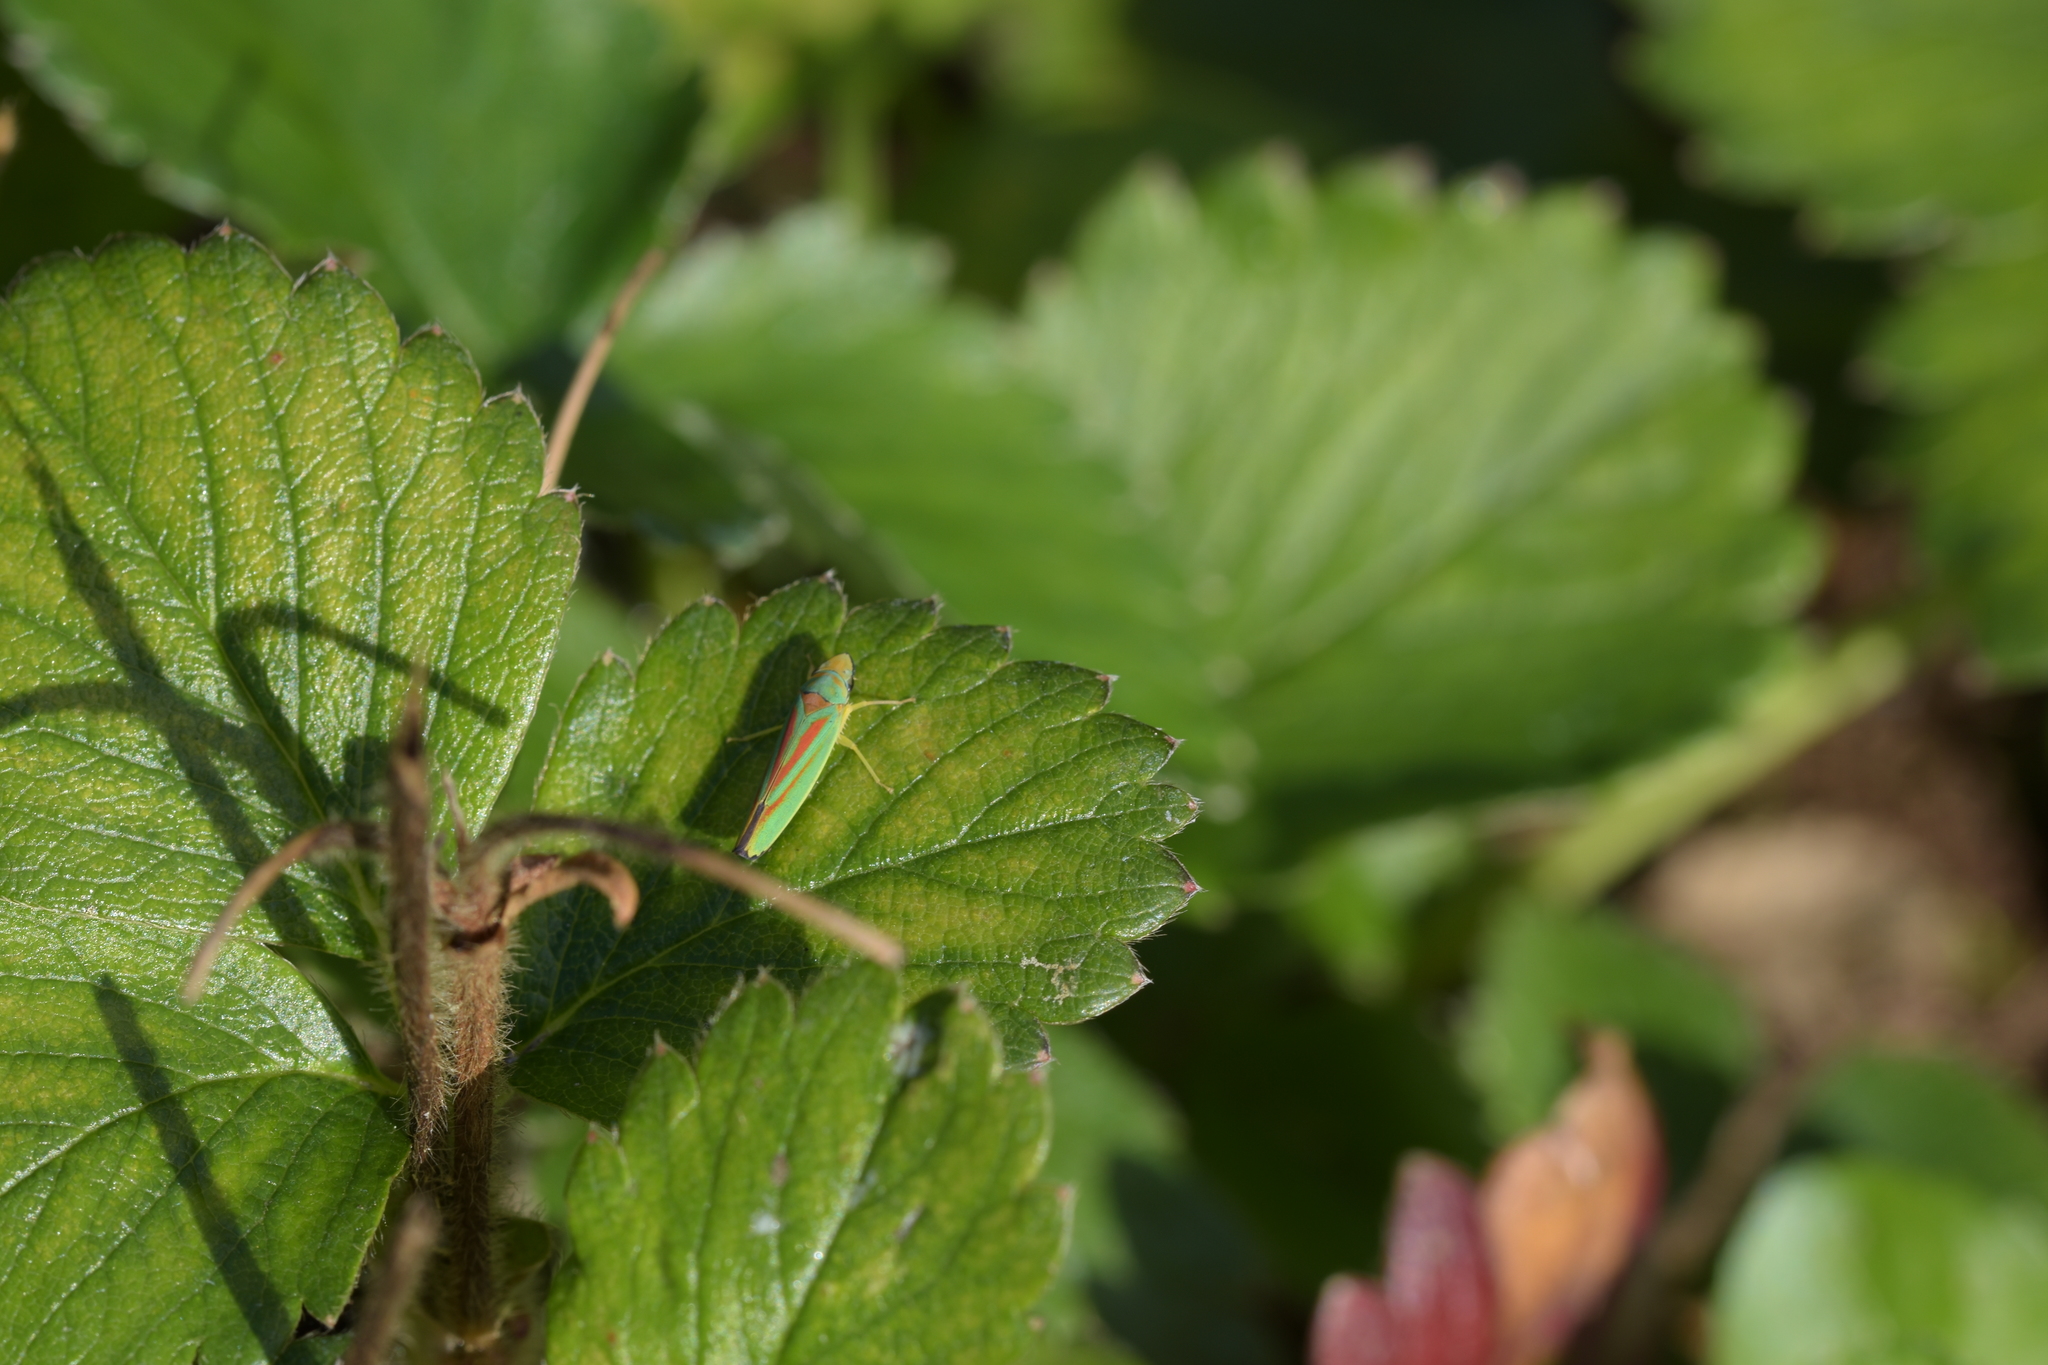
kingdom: Animalia
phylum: Arthropoda
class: Insecta
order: Hemiptera
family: Cicadellidae
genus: Graphocephala
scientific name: Graphocephala fennahi
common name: Rhododendron leafhopper
